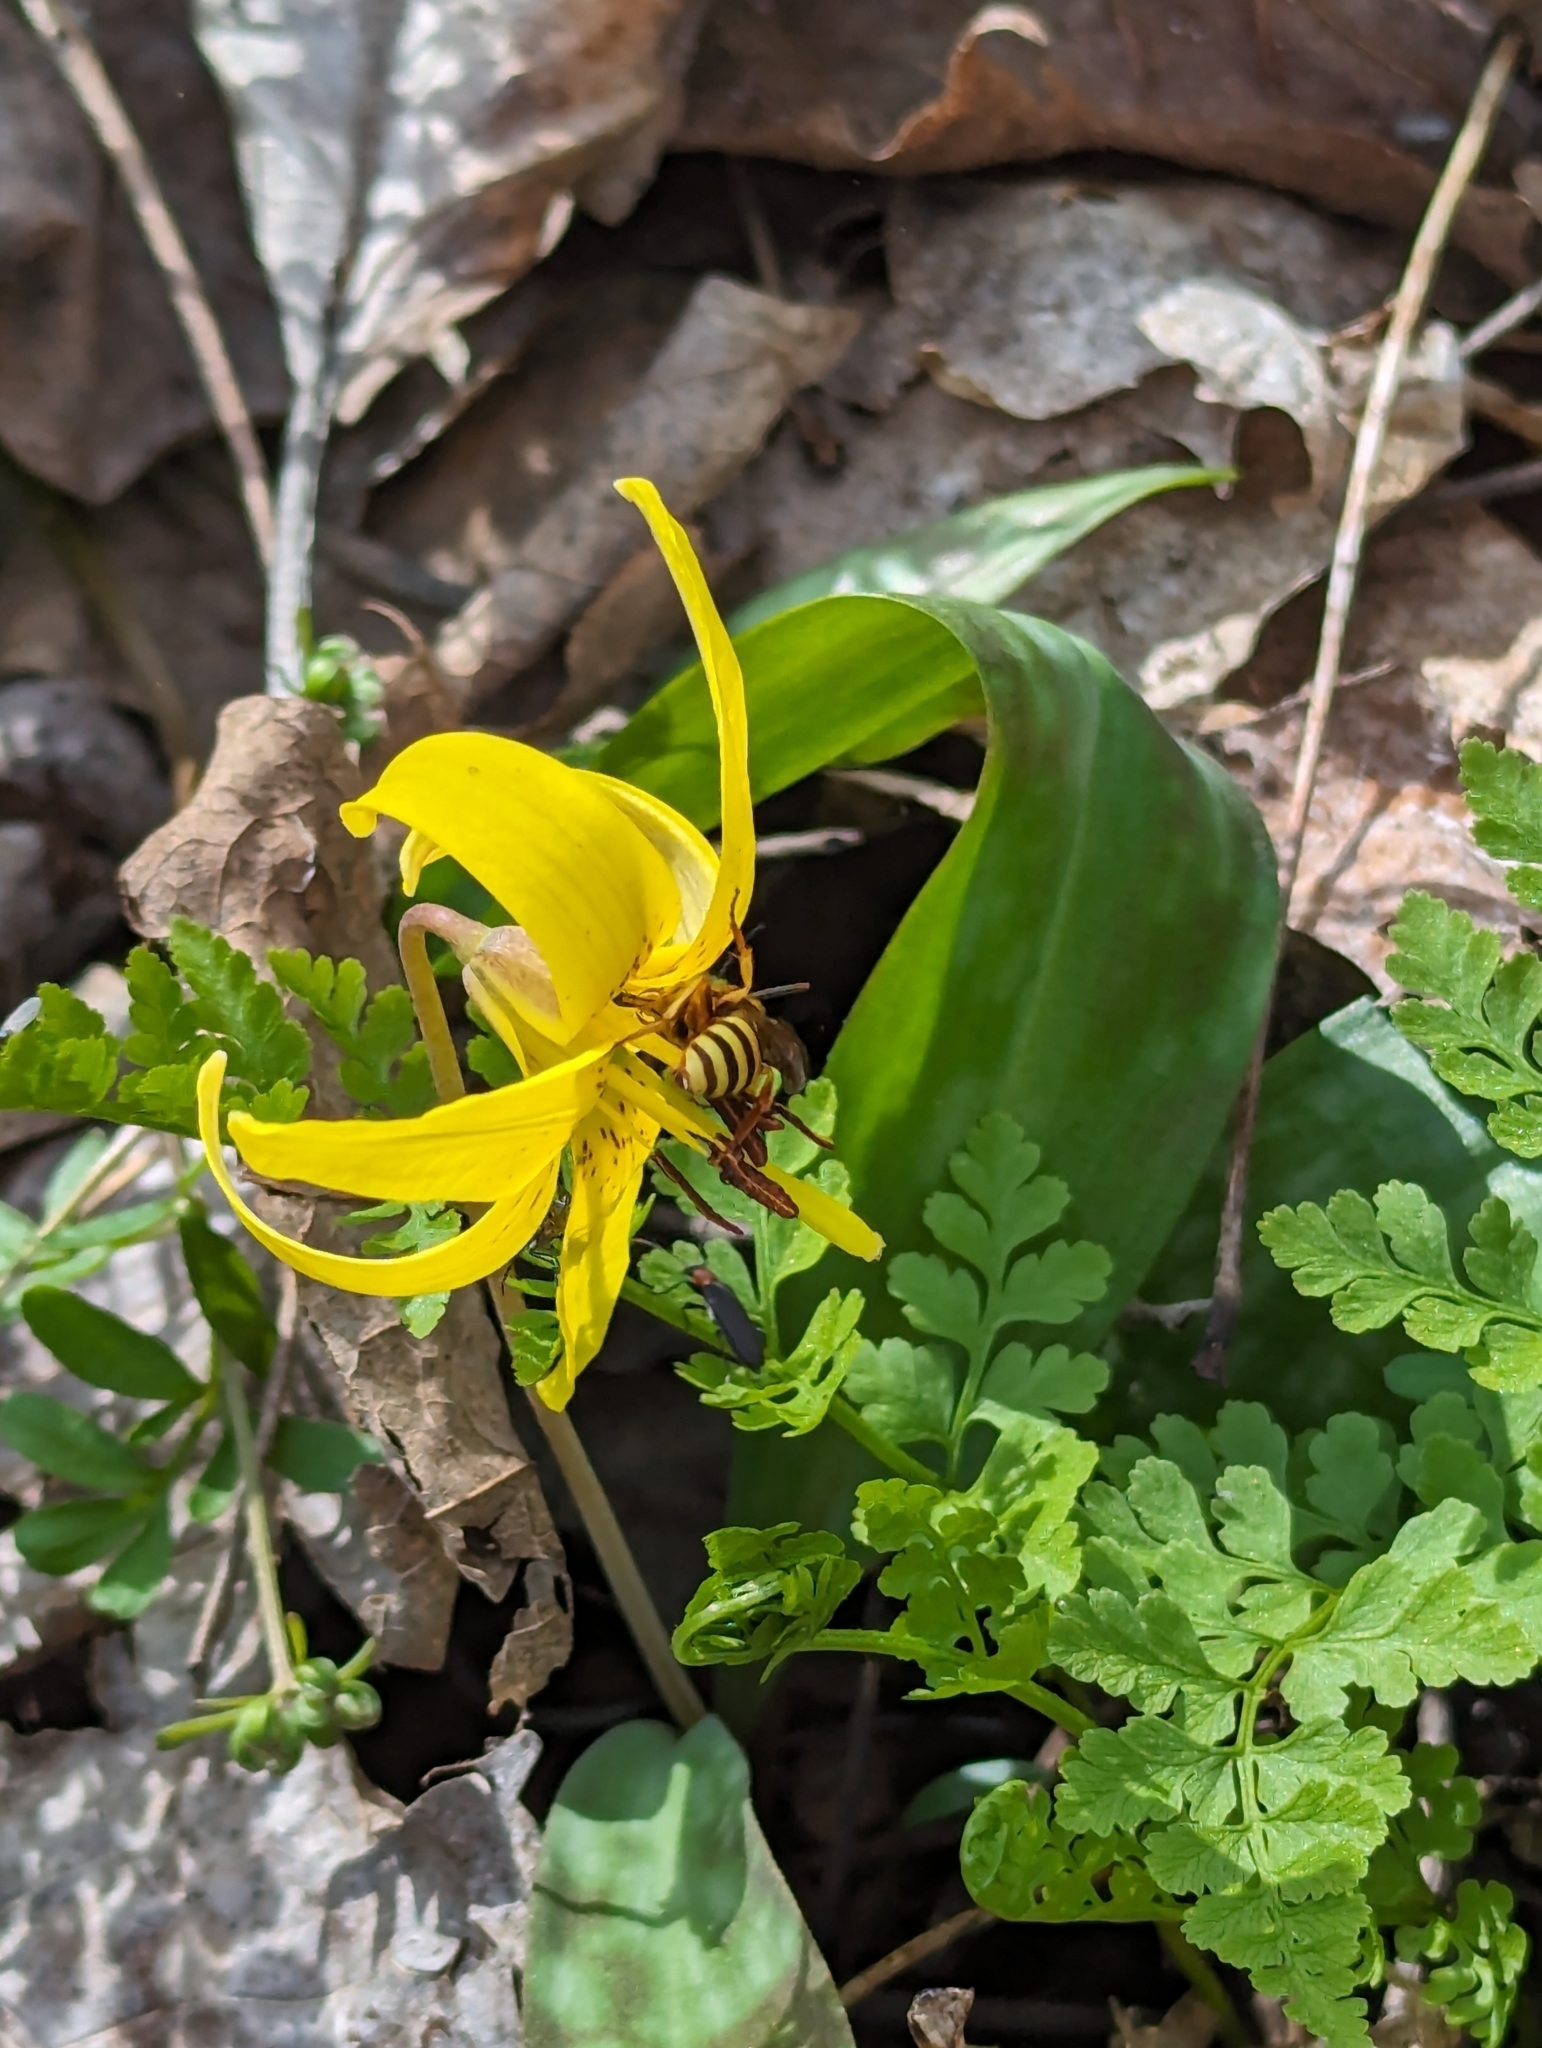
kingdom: Animalia
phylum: Arthropoda
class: Insecta
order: Hymenoptera
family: Apidae
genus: Nomada
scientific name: Nomada
